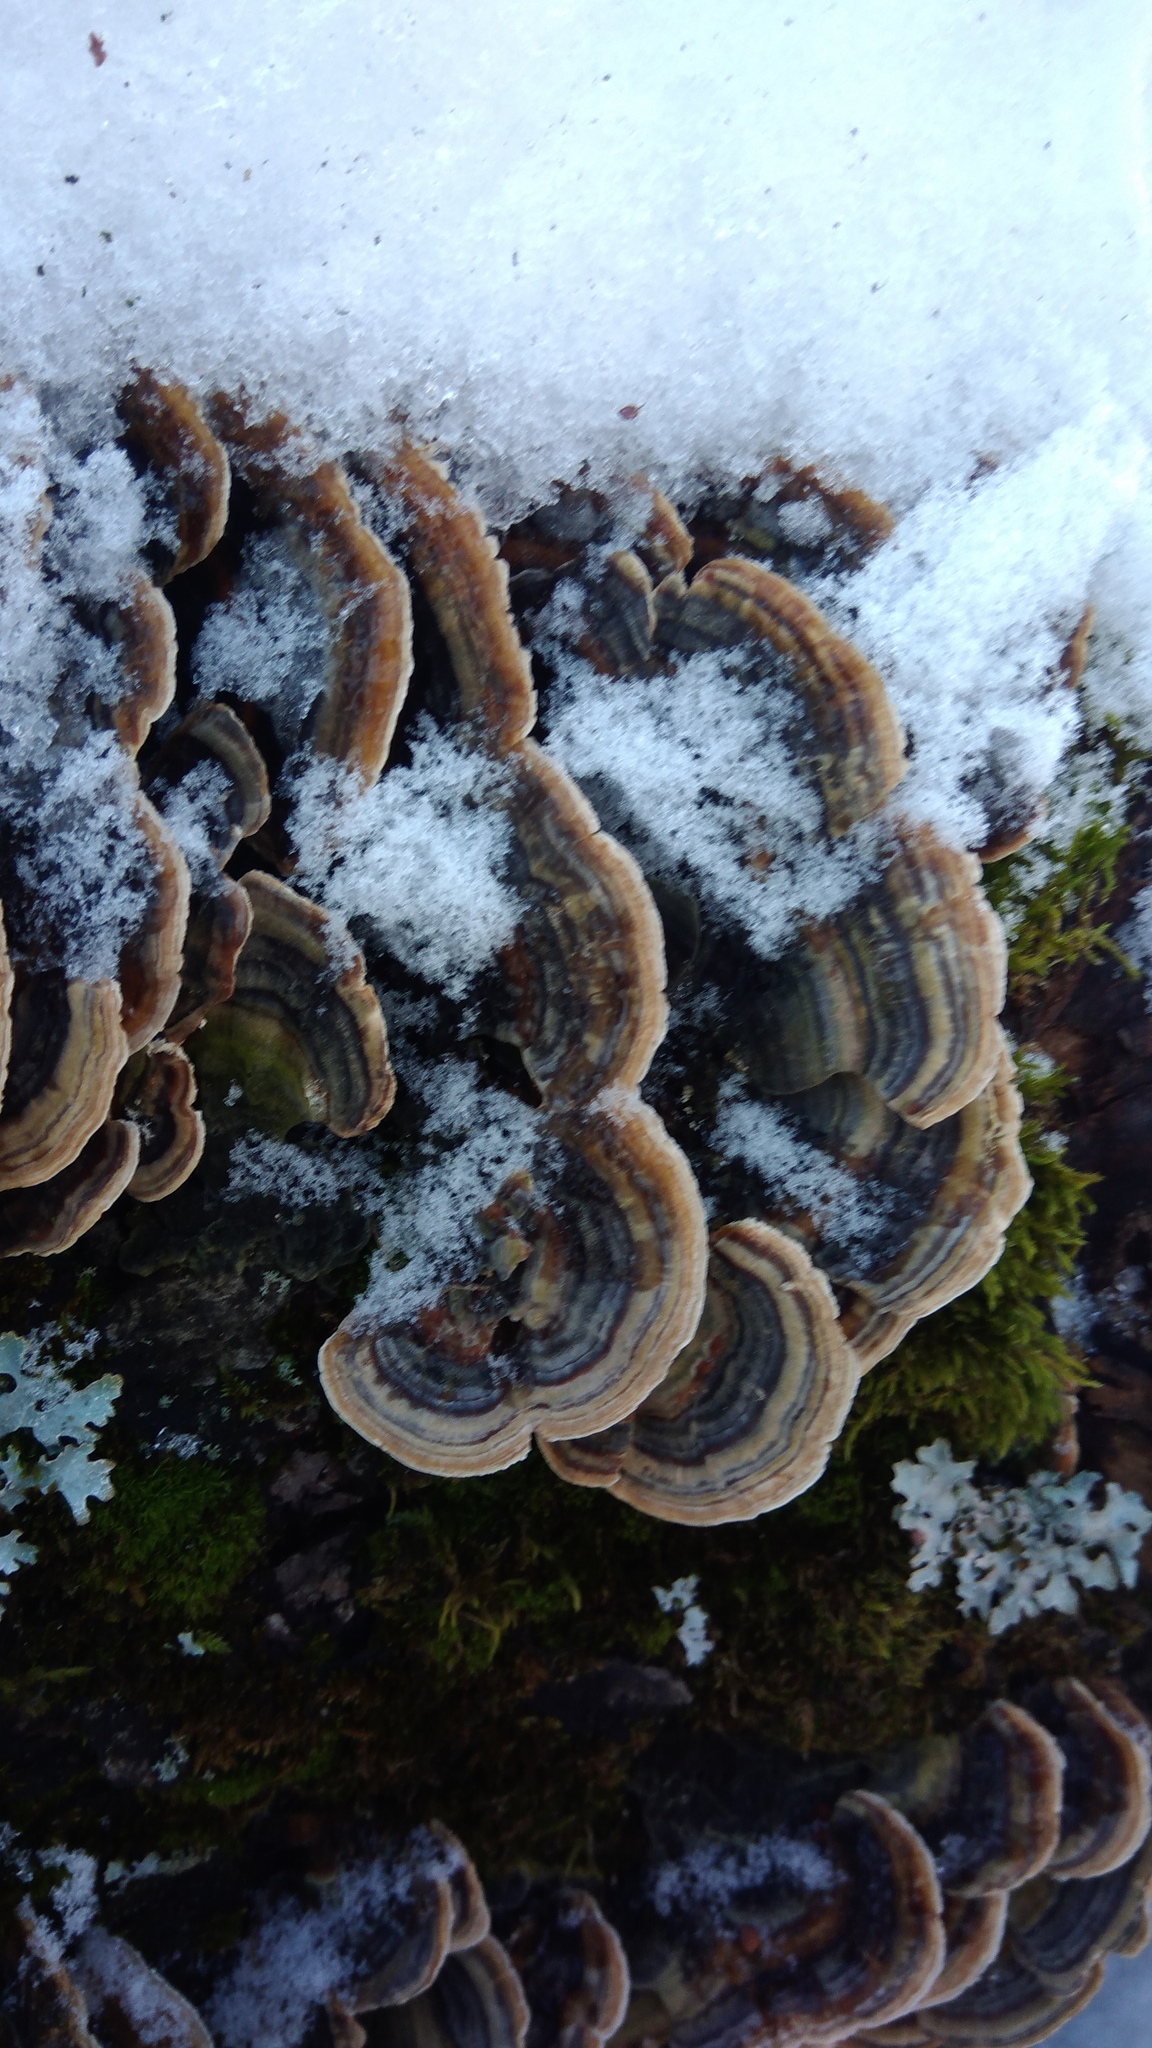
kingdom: Fungi
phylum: Basidiomycota
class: Agaricomycetes
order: Polyporales
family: Polyporaceae
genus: Trametes
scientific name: Trametes versicolor
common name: Turkeytail
